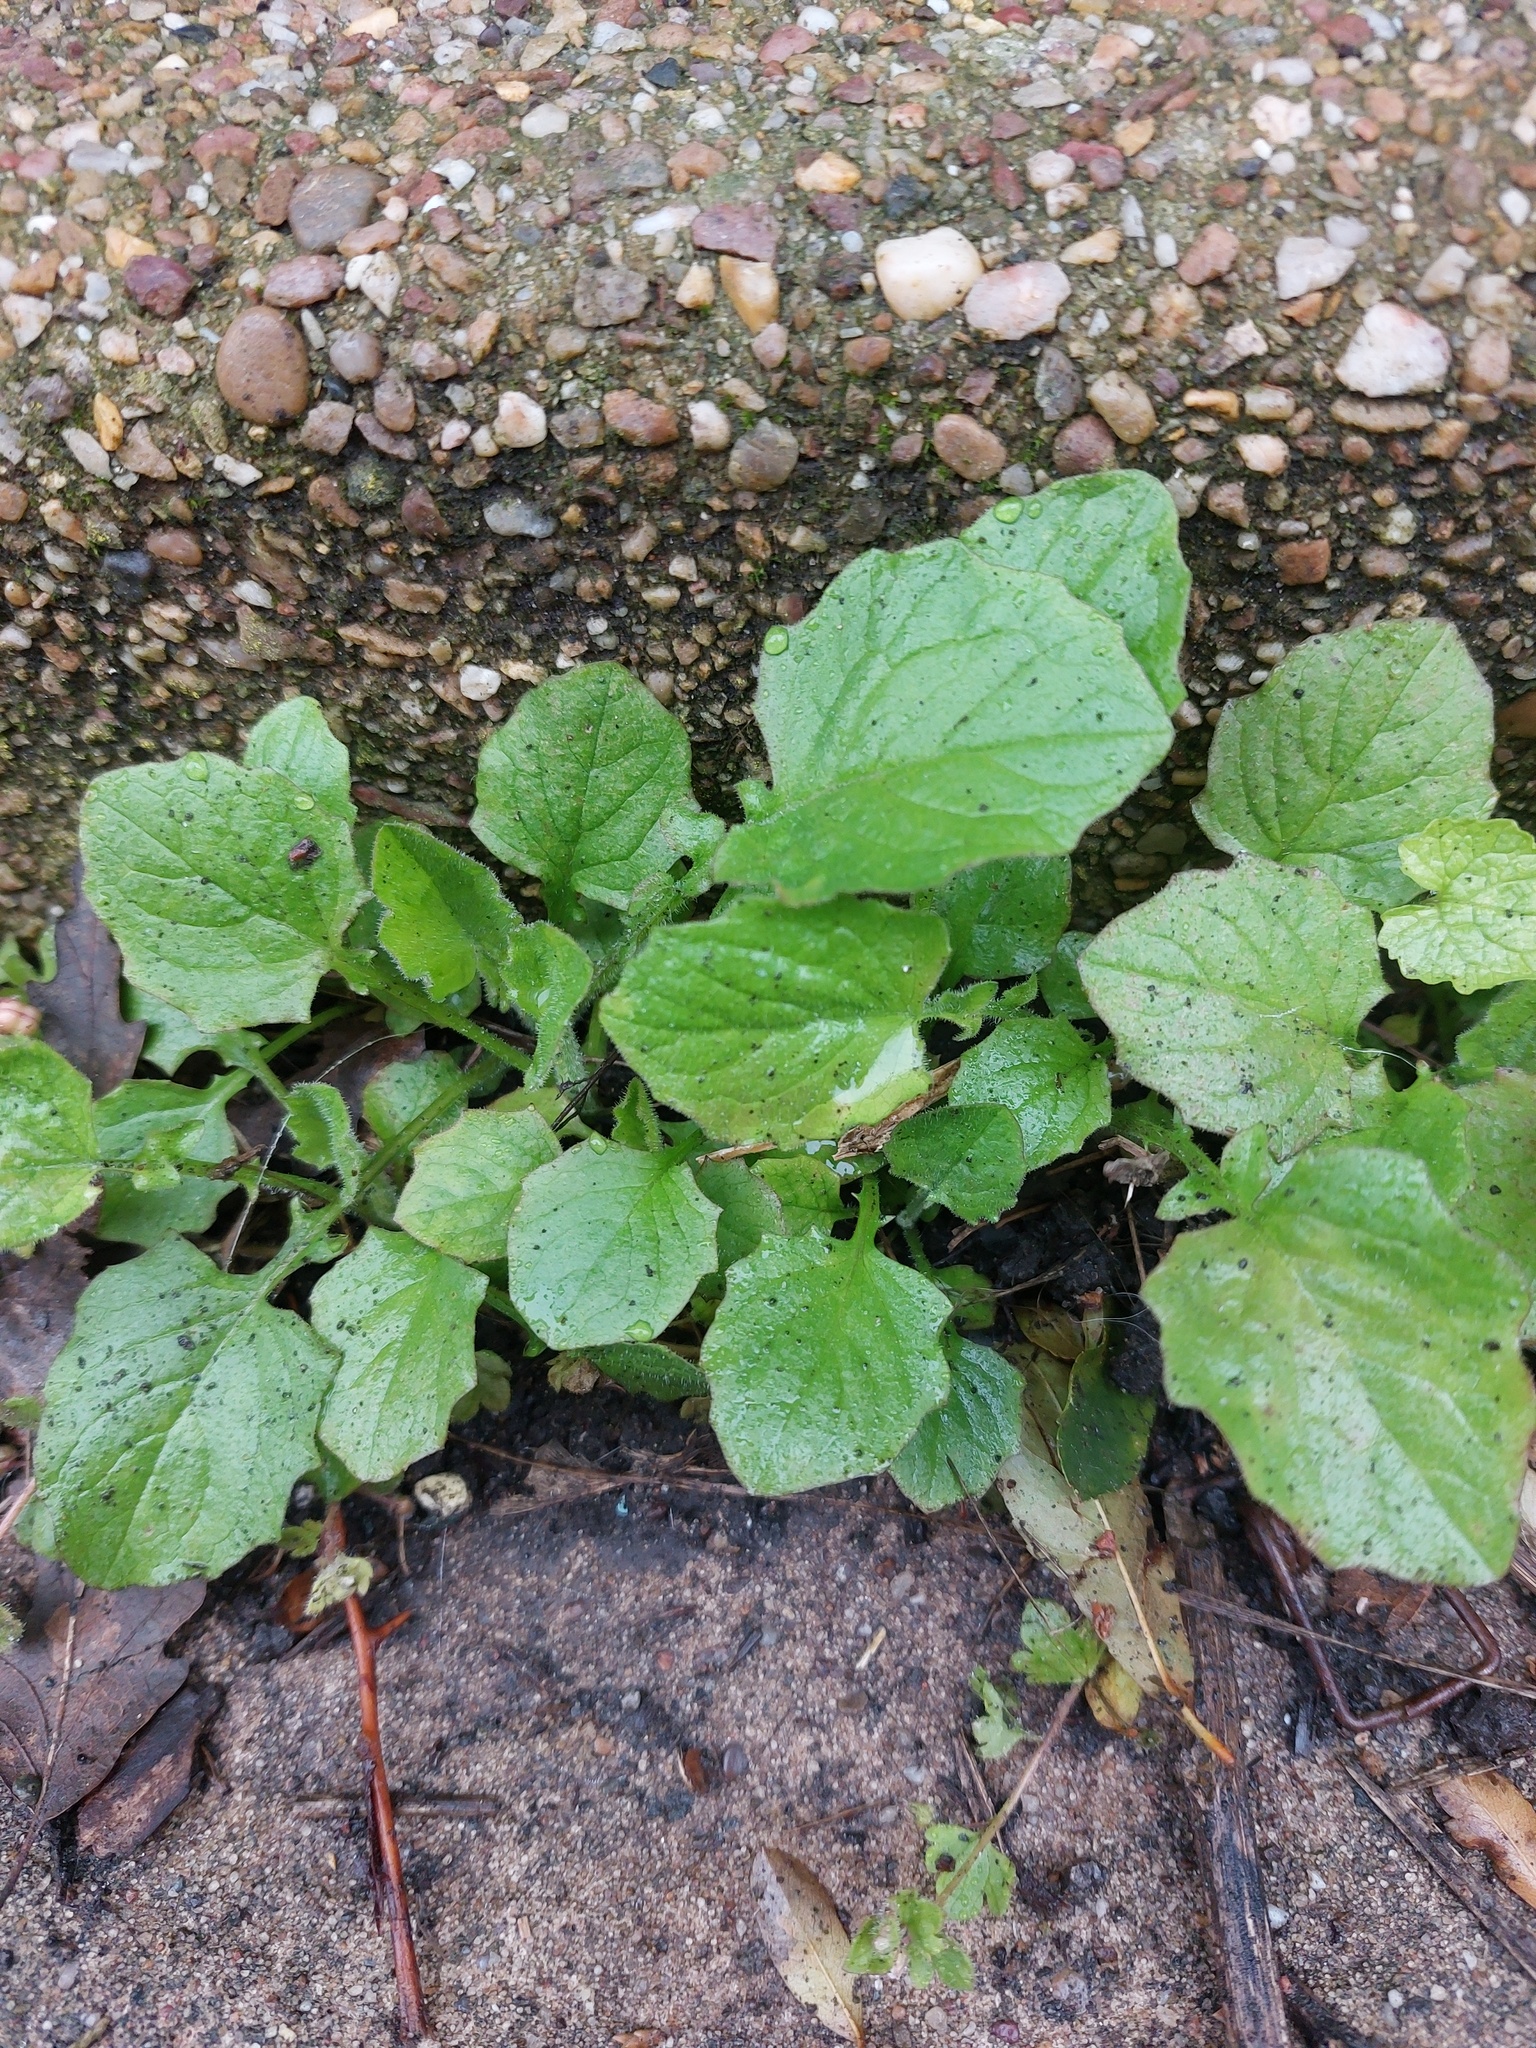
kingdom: Plantae
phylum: Tracheophyta
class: Magnoliopsida
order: Asterales
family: Asteraceae
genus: Lapsana
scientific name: Lapsana communis
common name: Nipplewort
